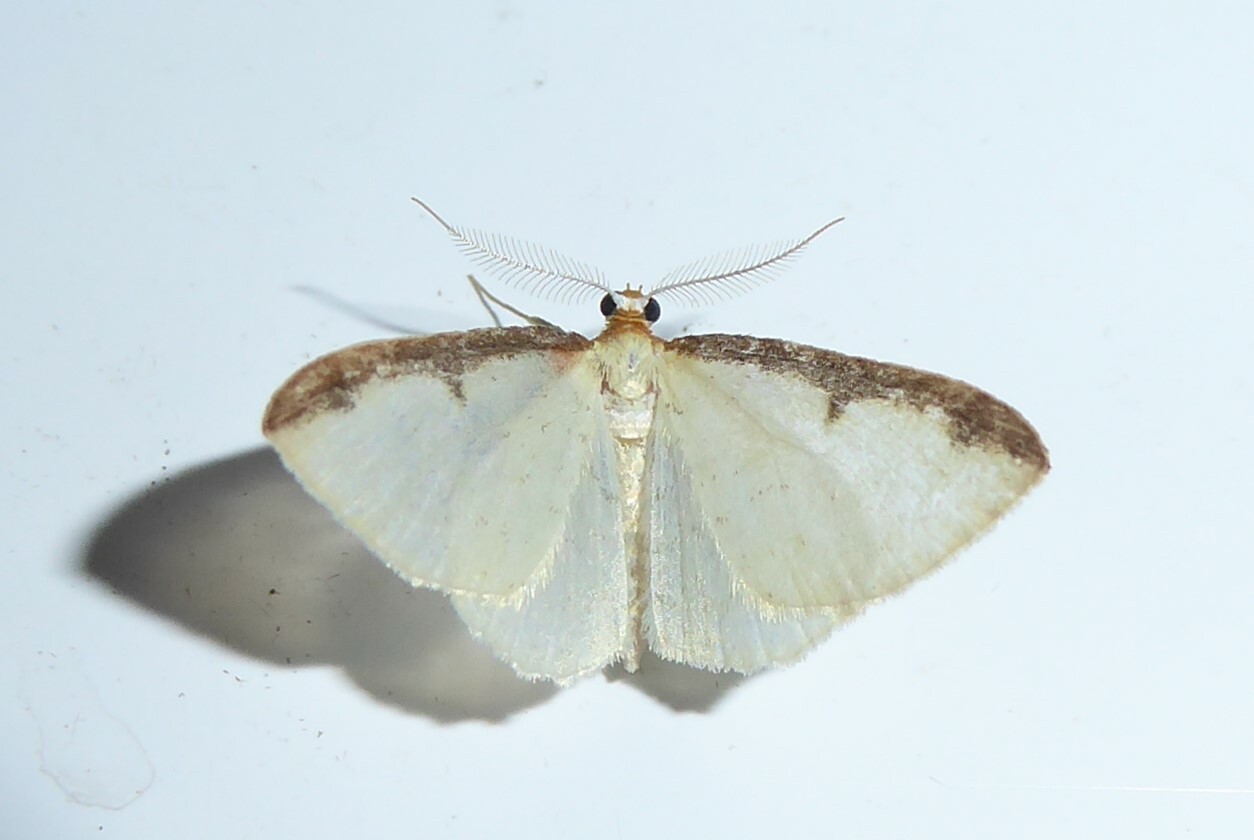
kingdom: Animalia
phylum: Arthropoda
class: Insecta
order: Lepidoptera
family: Geometridae
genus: Epiphryne
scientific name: Epiphryne undosata
